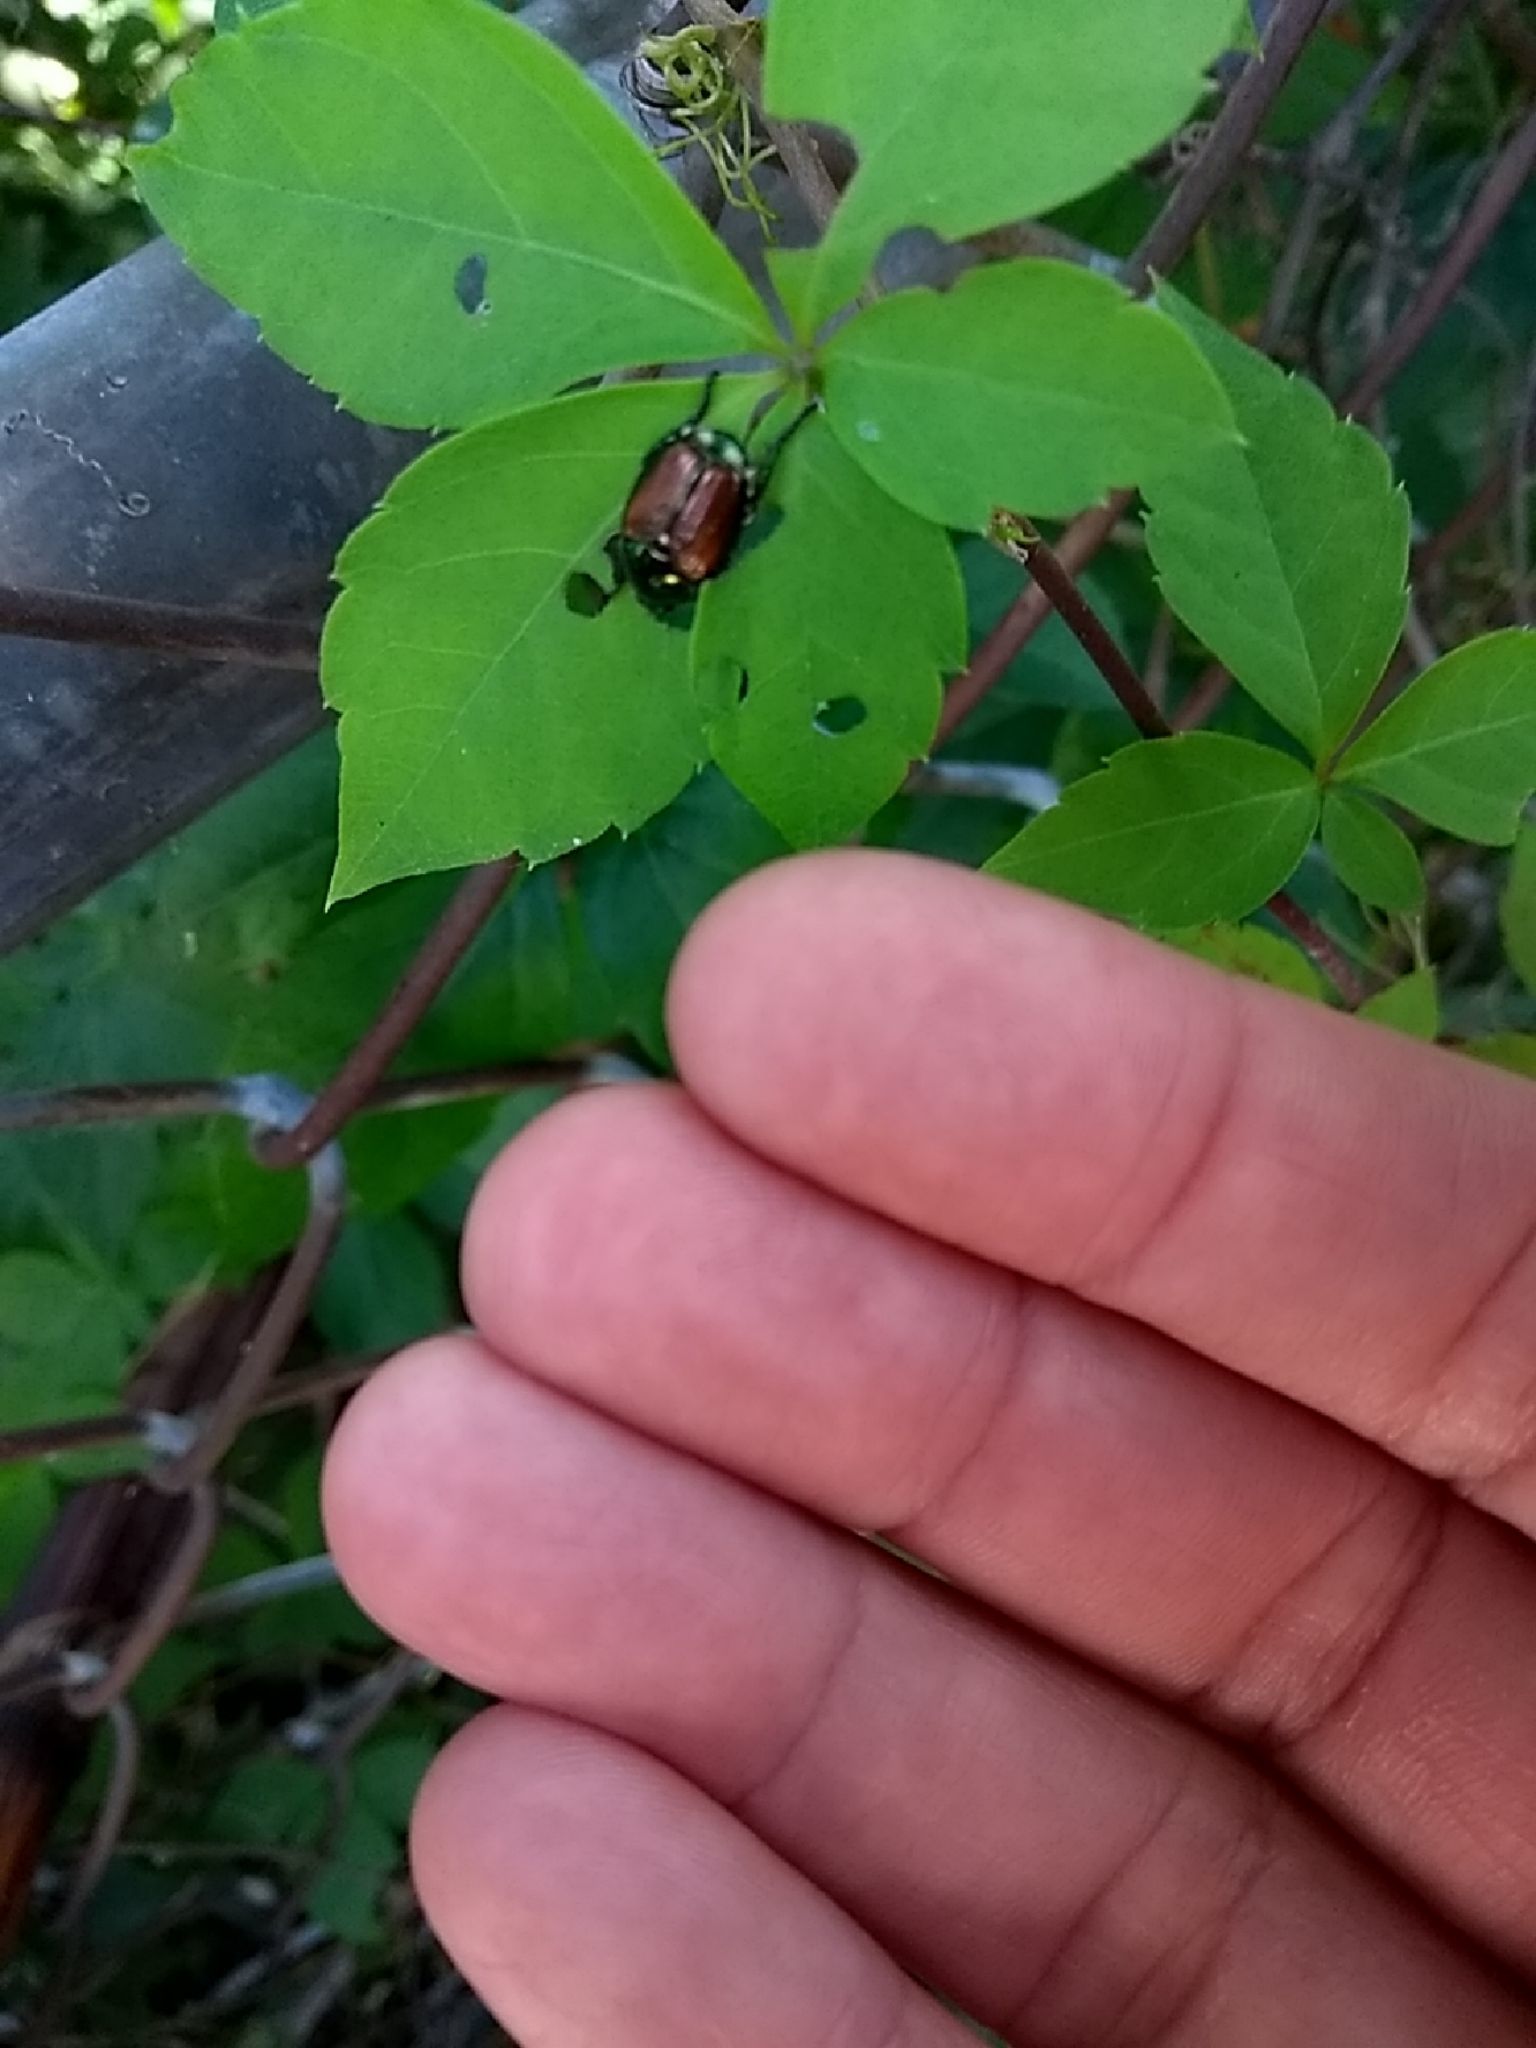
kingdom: Animalia
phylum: Arthropoda
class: Insecta
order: Coleoptera
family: Scarabaeidae
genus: Popillia
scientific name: Popillia japonica
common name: Japanese beetle
